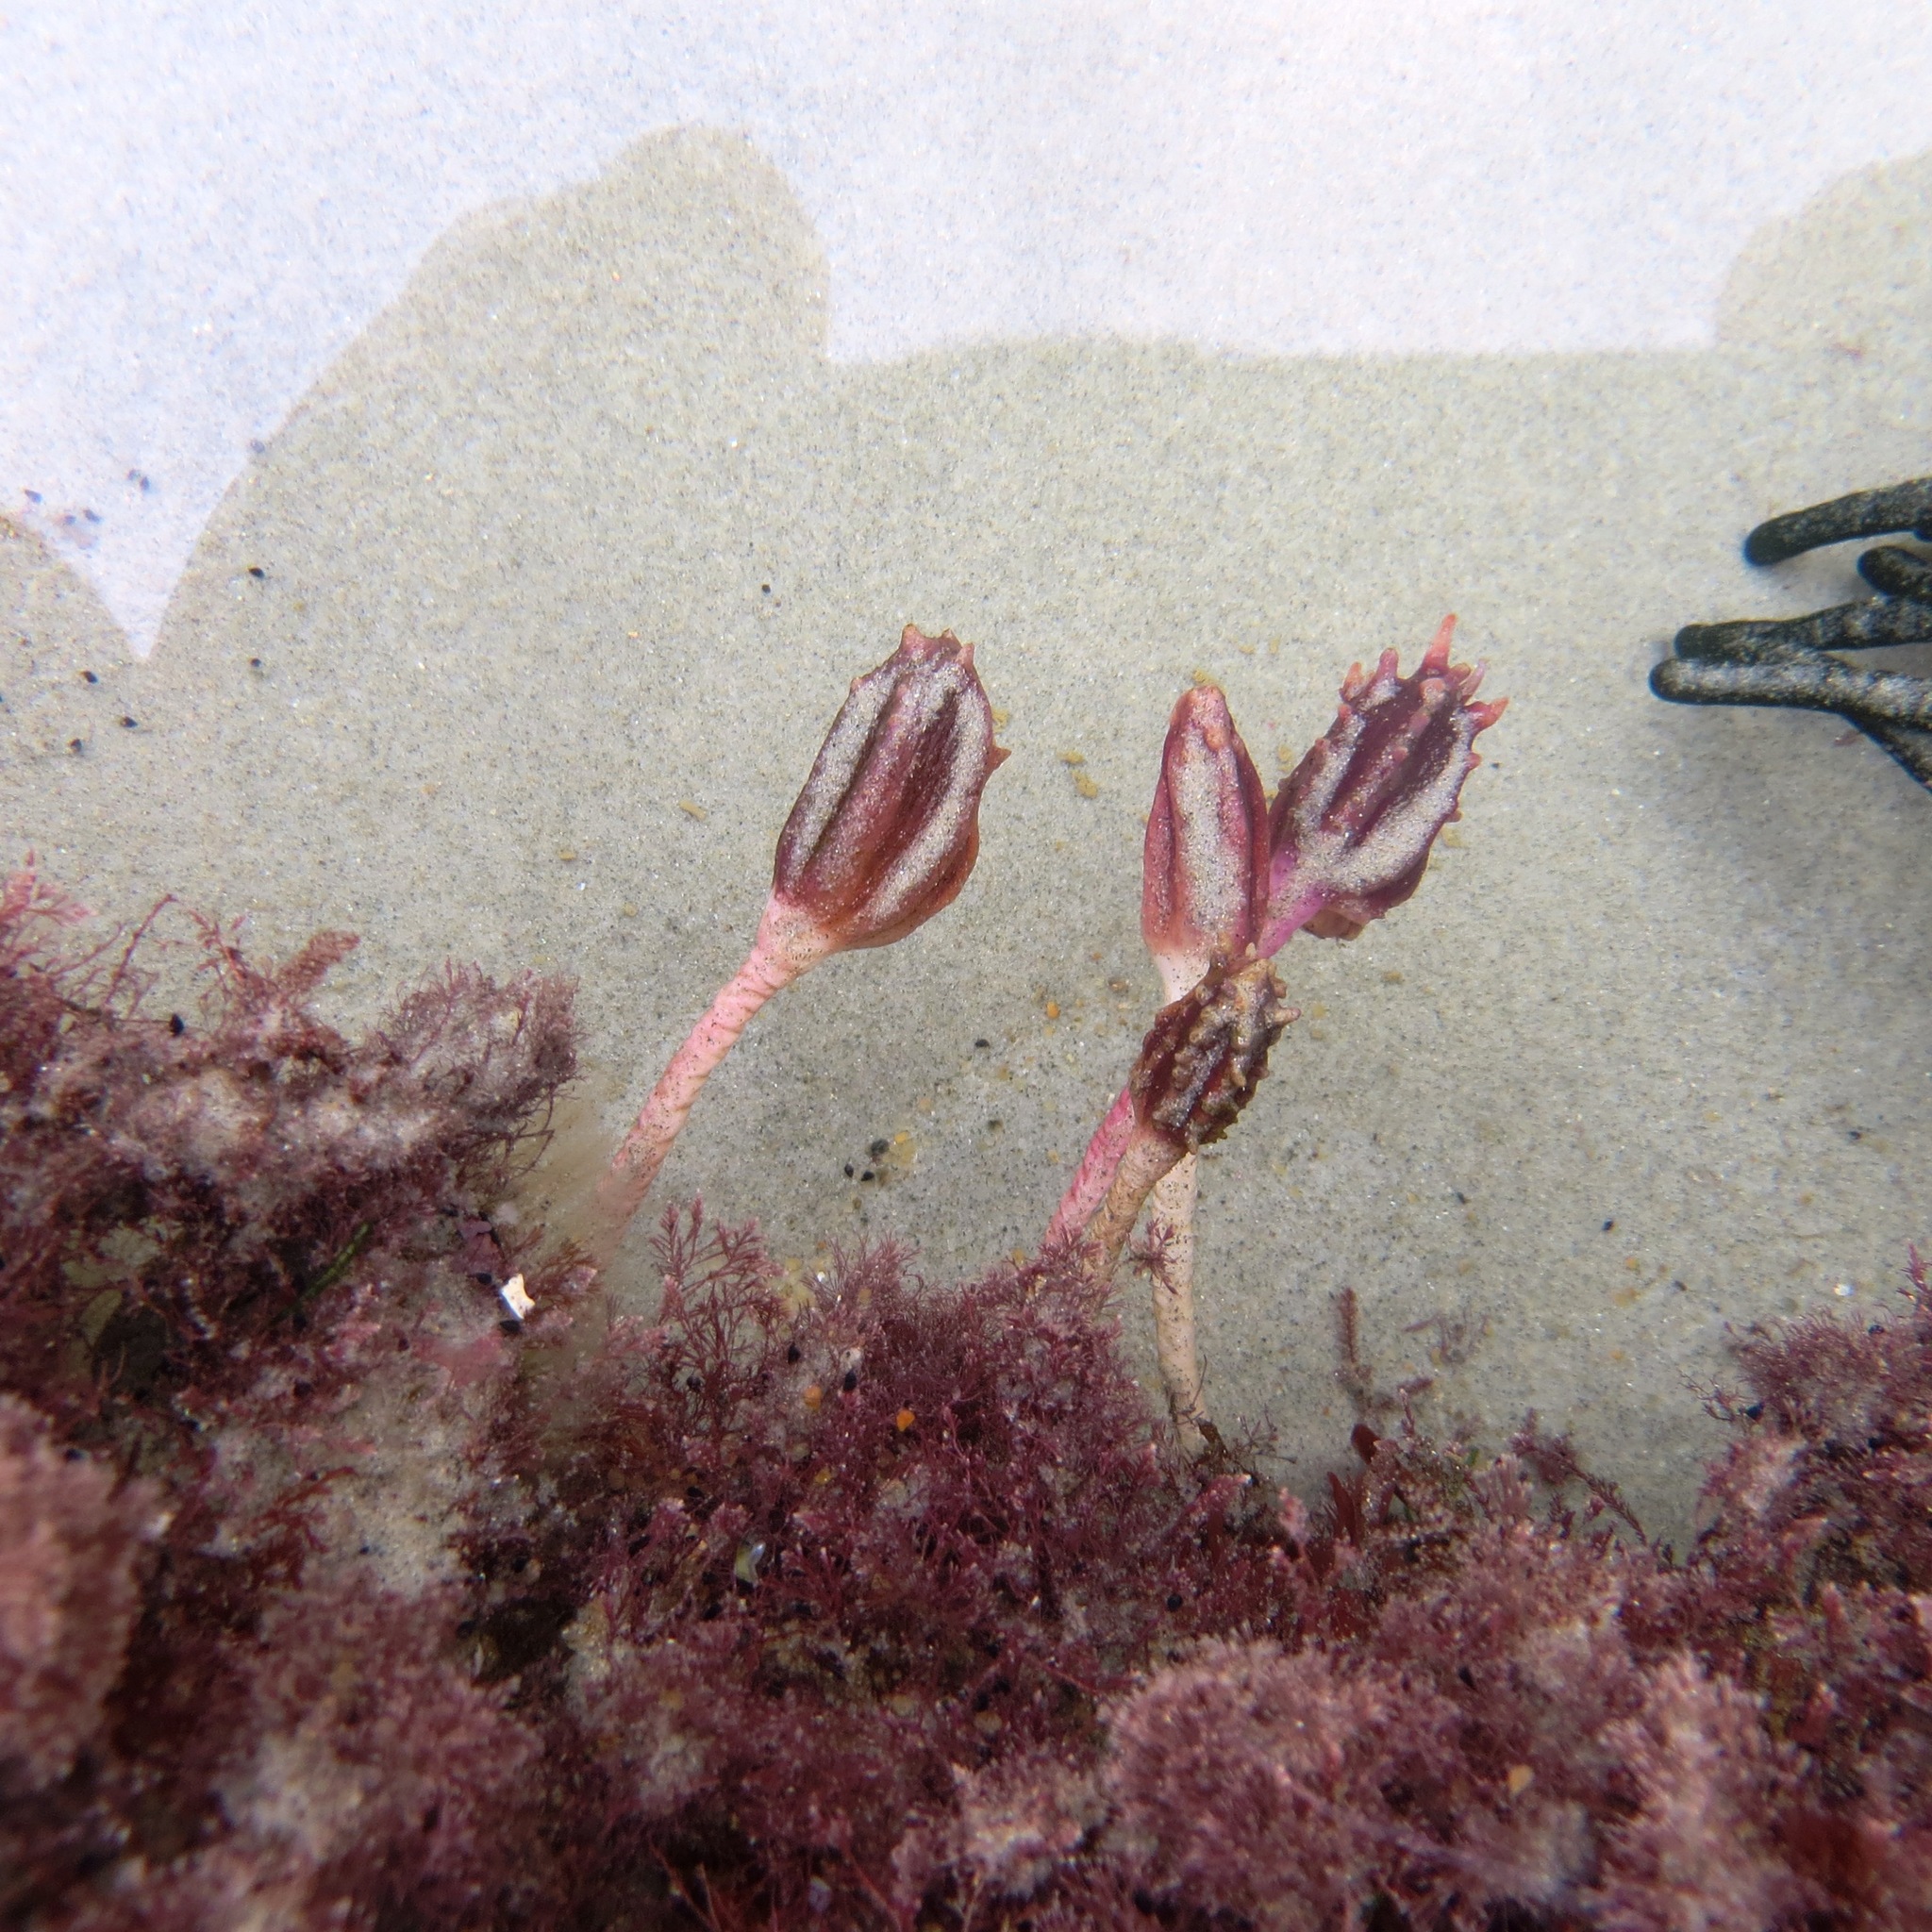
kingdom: Animalia
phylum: Chordata
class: Ascidiacea
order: Stolidobranchia
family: Pyuridae
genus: Pyura
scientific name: Pyura pachydermatina
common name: Sea tulip
